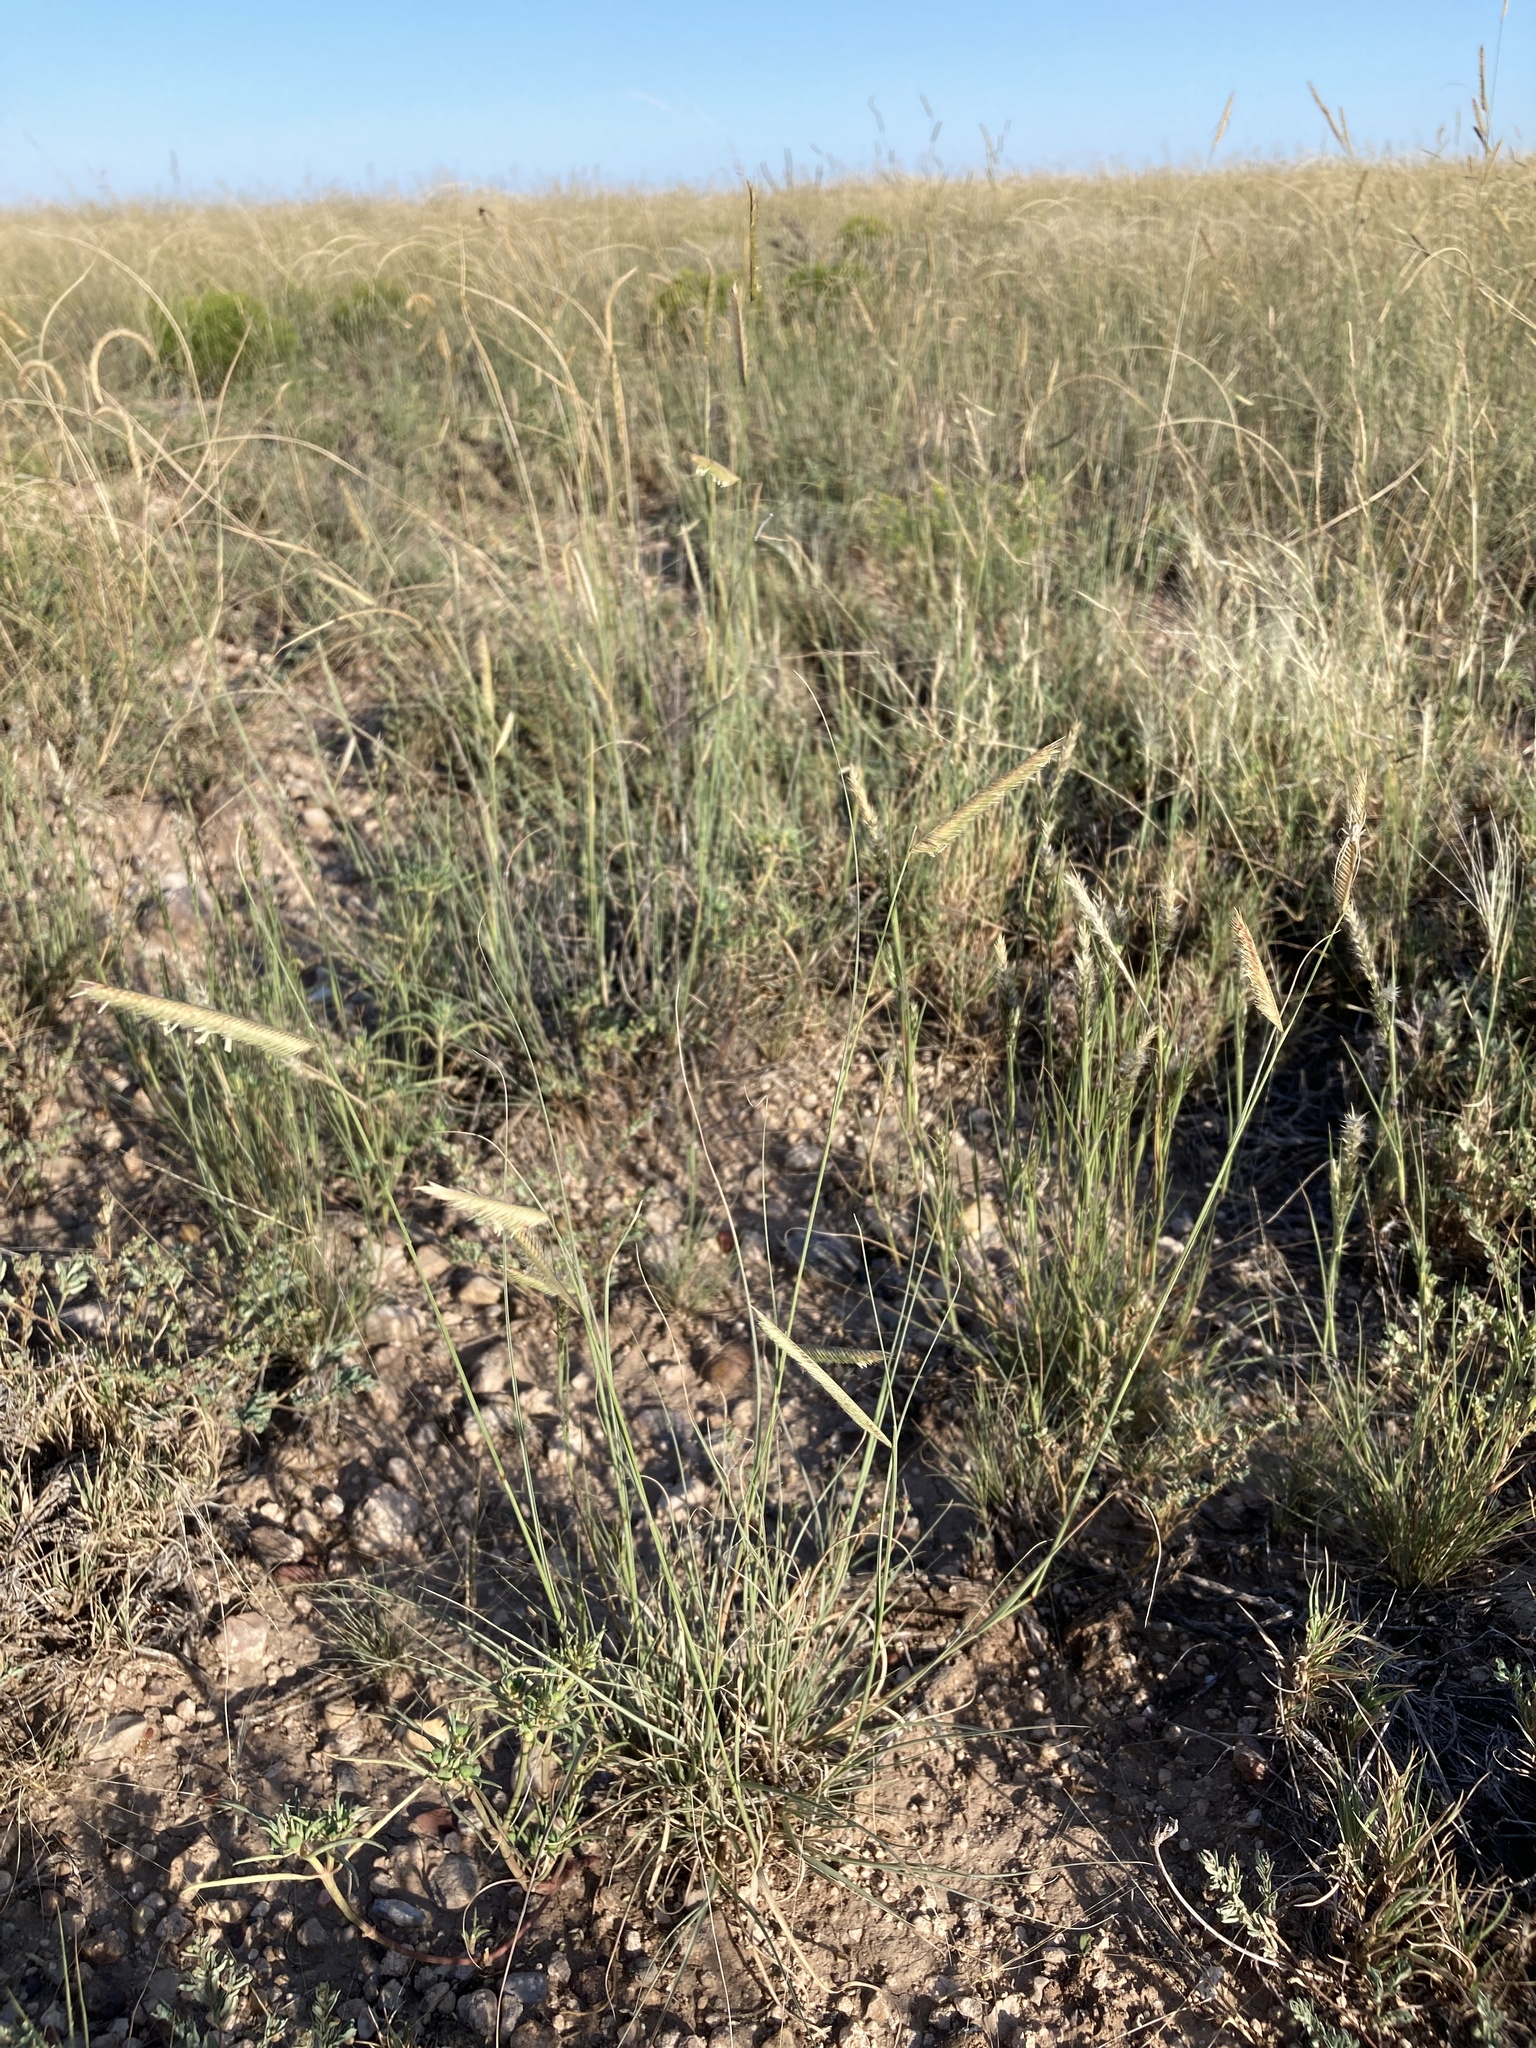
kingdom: Plantae
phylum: Tracheophyta
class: Liliopsida
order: Poales
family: Poaceae
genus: Bouteloua
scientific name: Bouteloua gracilis
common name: Blue grama
